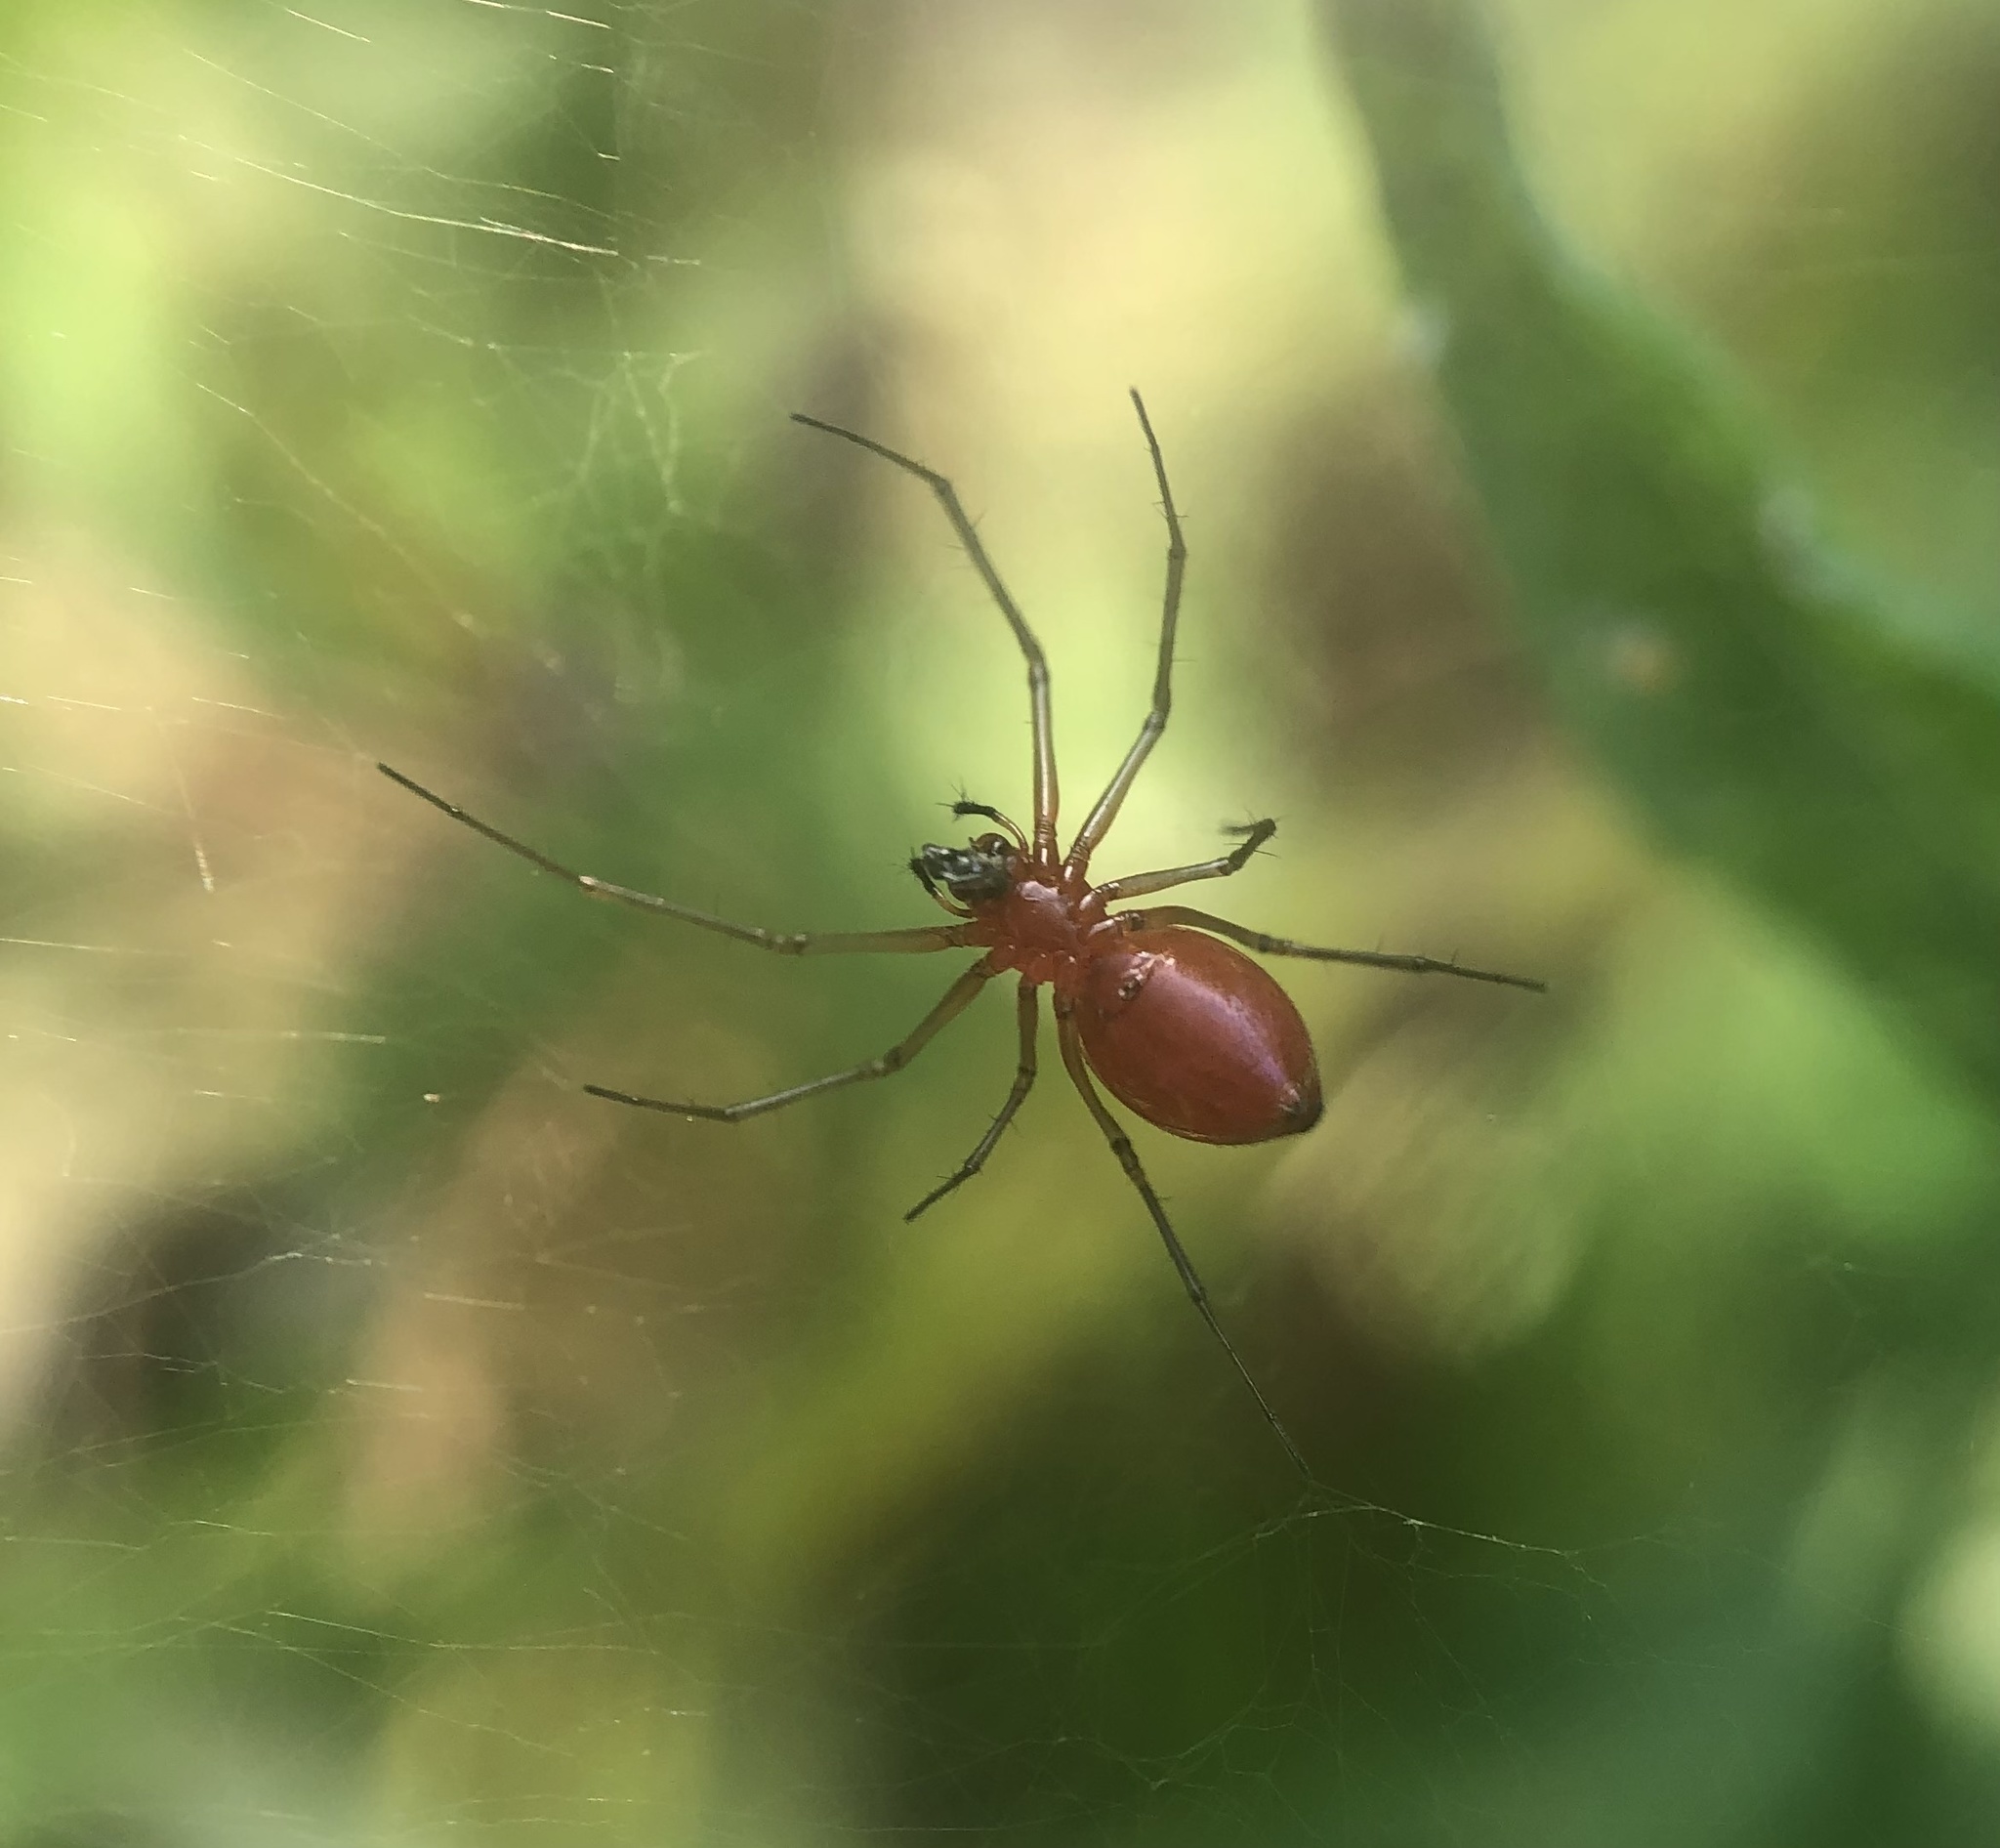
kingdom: Animalia
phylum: Arthropoda
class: Arachnida
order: Araneae
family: Linyphiidae
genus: Florinda
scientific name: Florinda coccinea
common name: Black-tailed red sheetweaver
